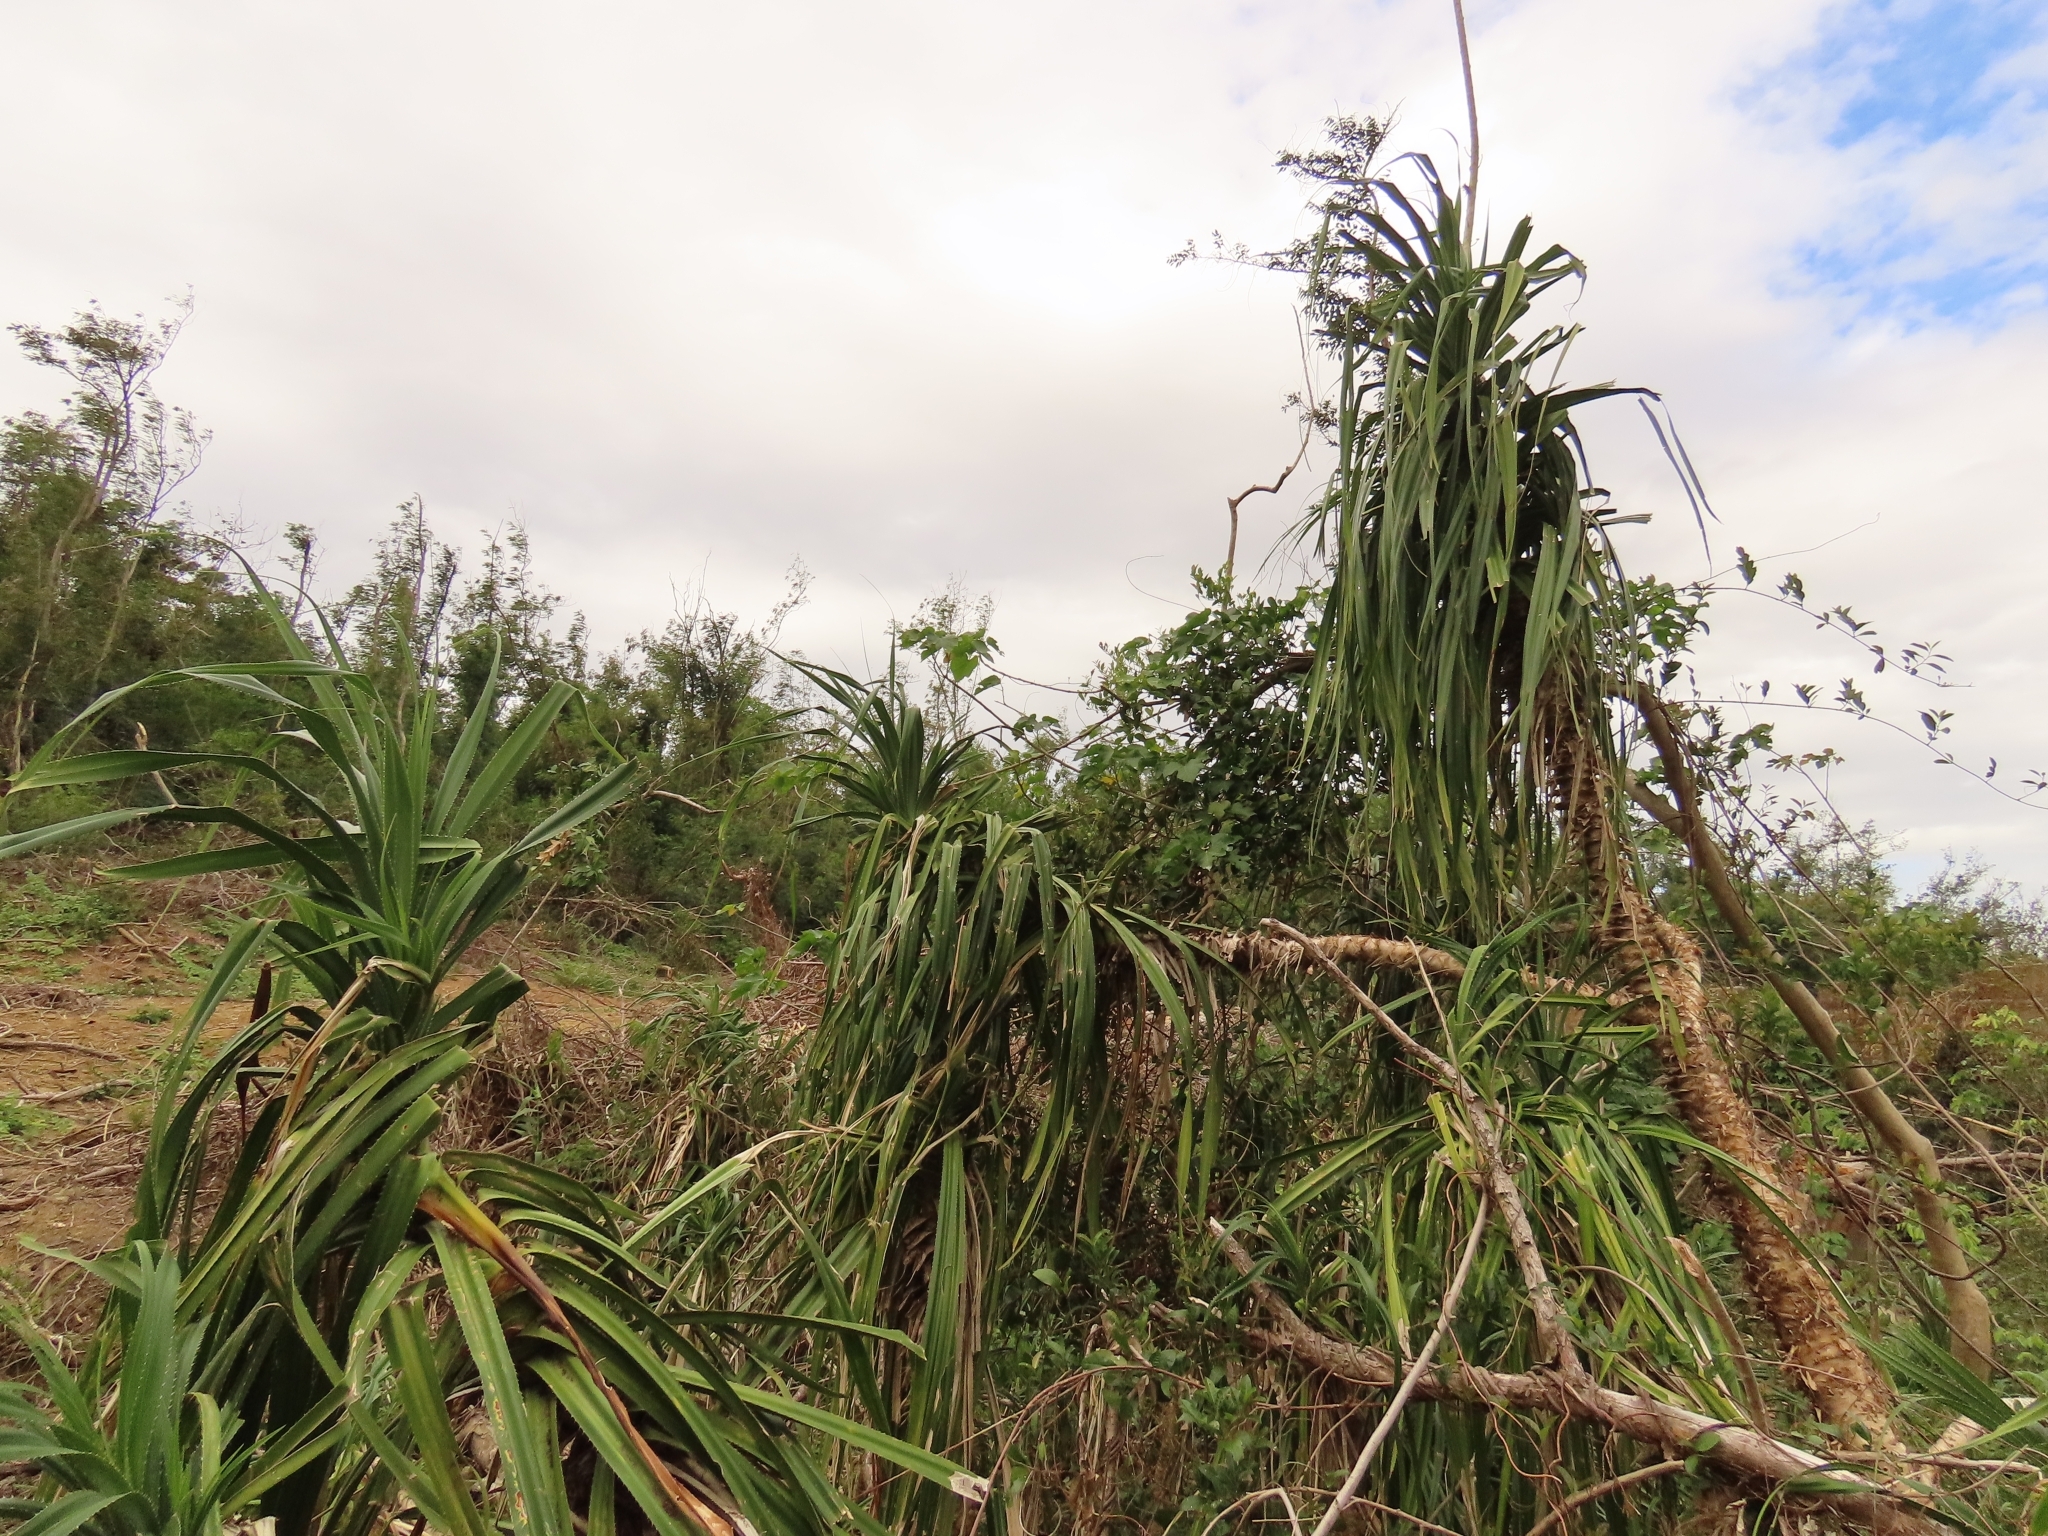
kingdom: Plantae
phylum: Tracheophyta
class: Liliopsida
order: Pandanales
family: Pandanaceae
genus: Pandanus
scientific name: Pandanus odorifer
